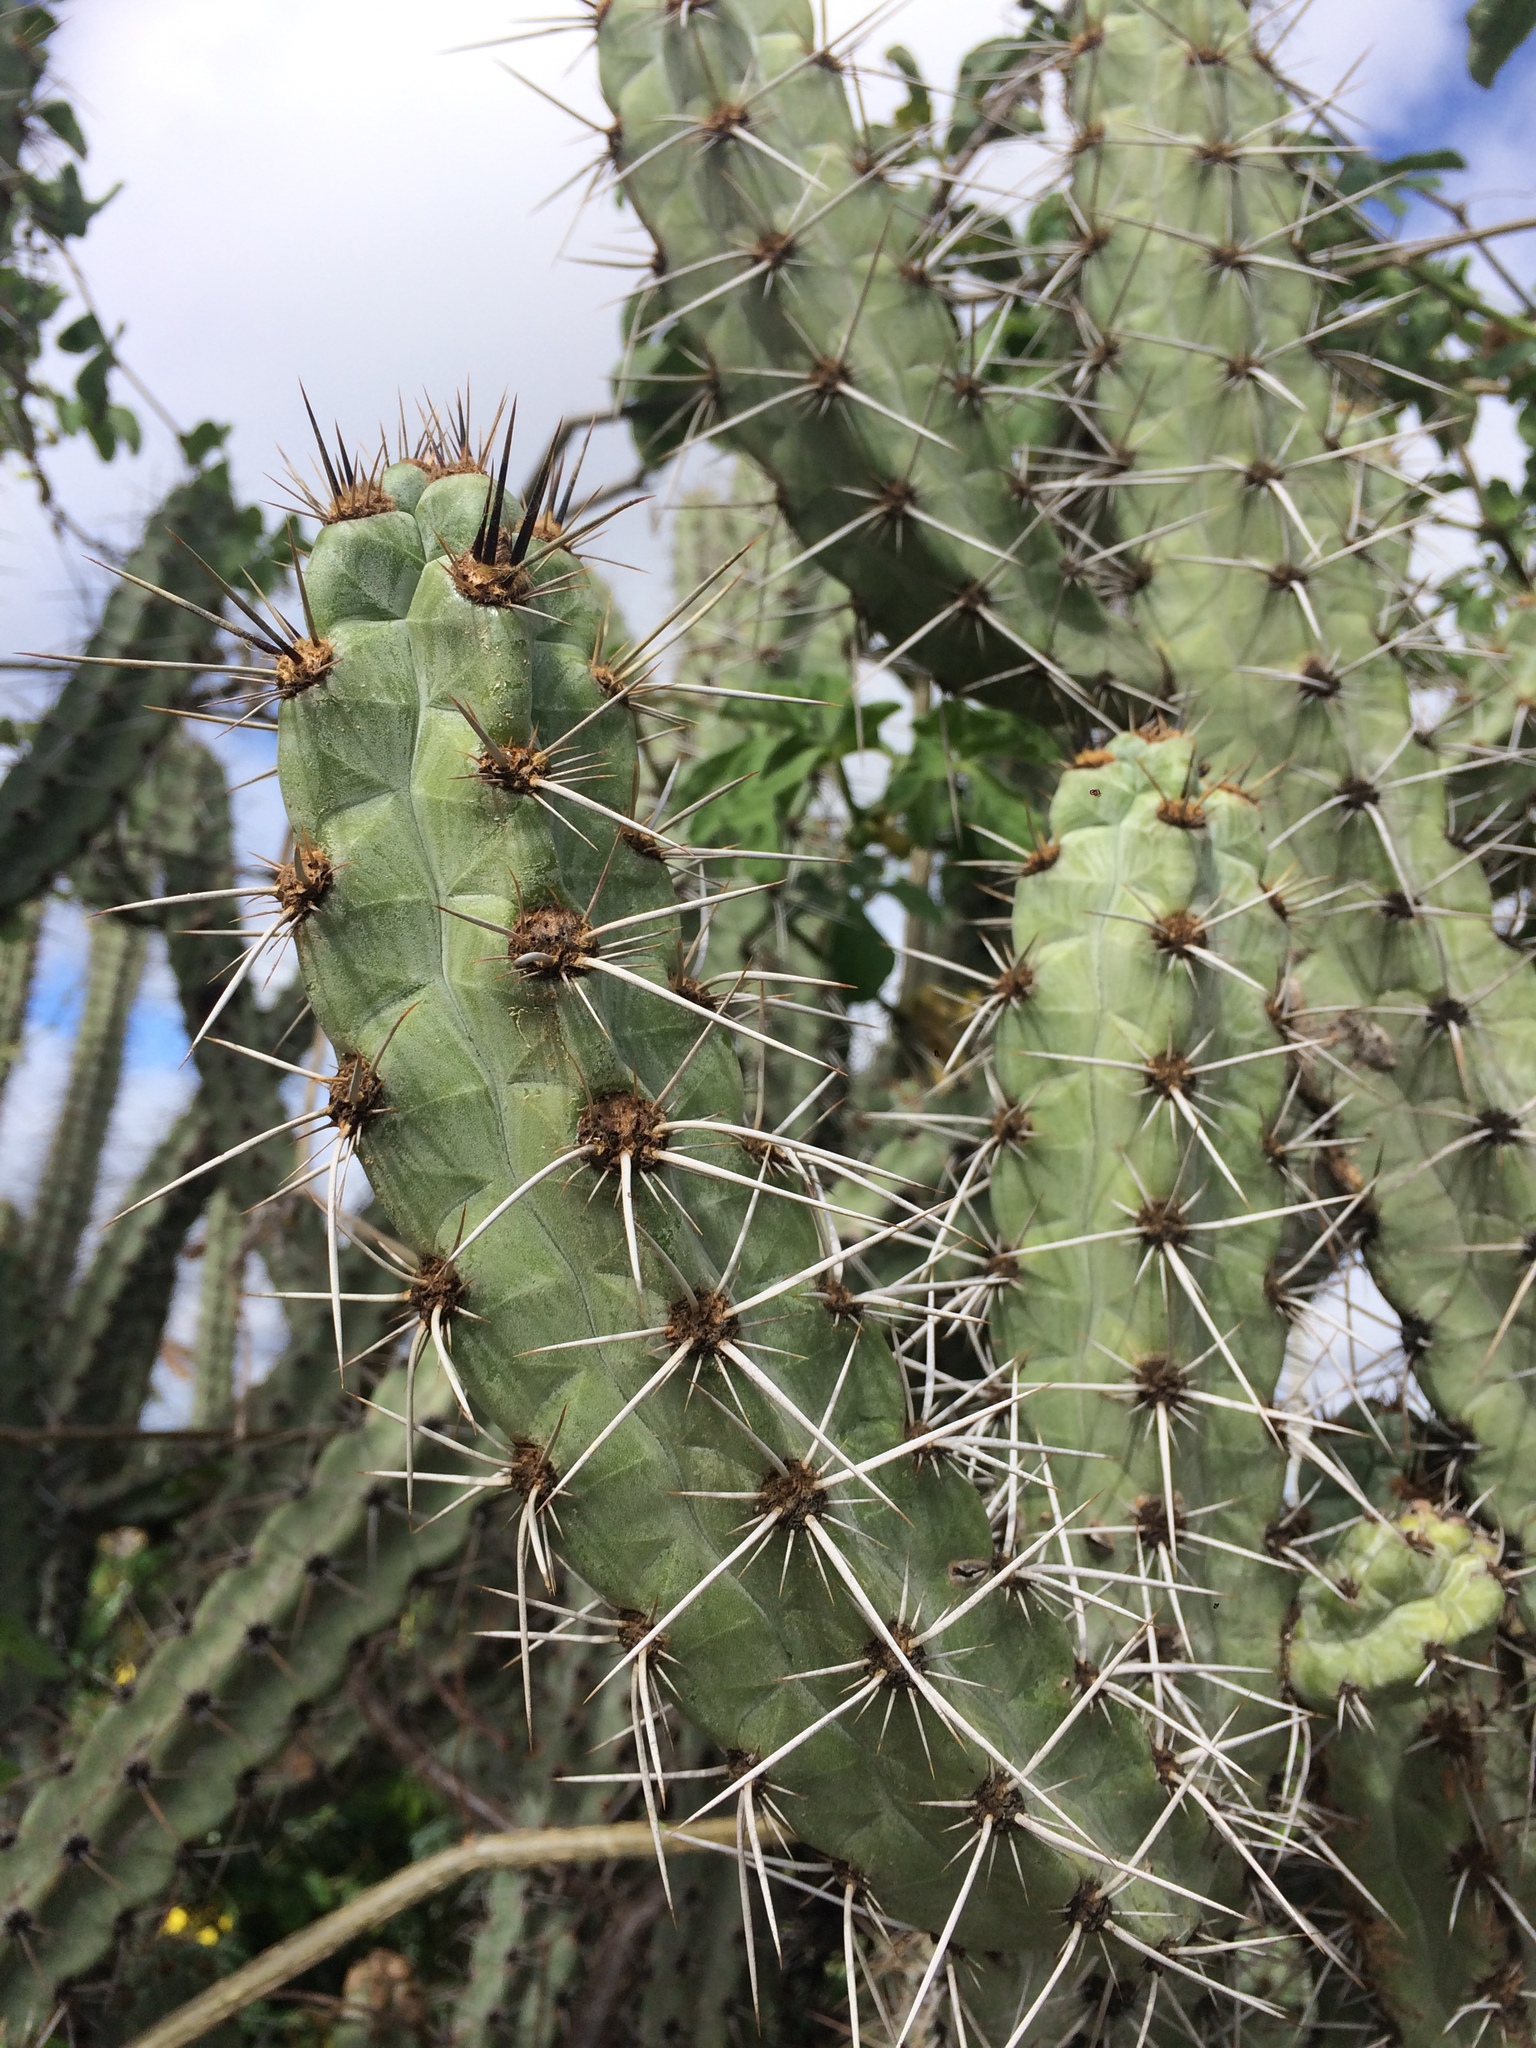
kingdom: Plantae
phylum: Tracheophyta
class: Magnoliopsida
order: Caryophyllales
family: Cactaceae
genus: Xiquexique
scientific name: Xiquexique tuberculatus
